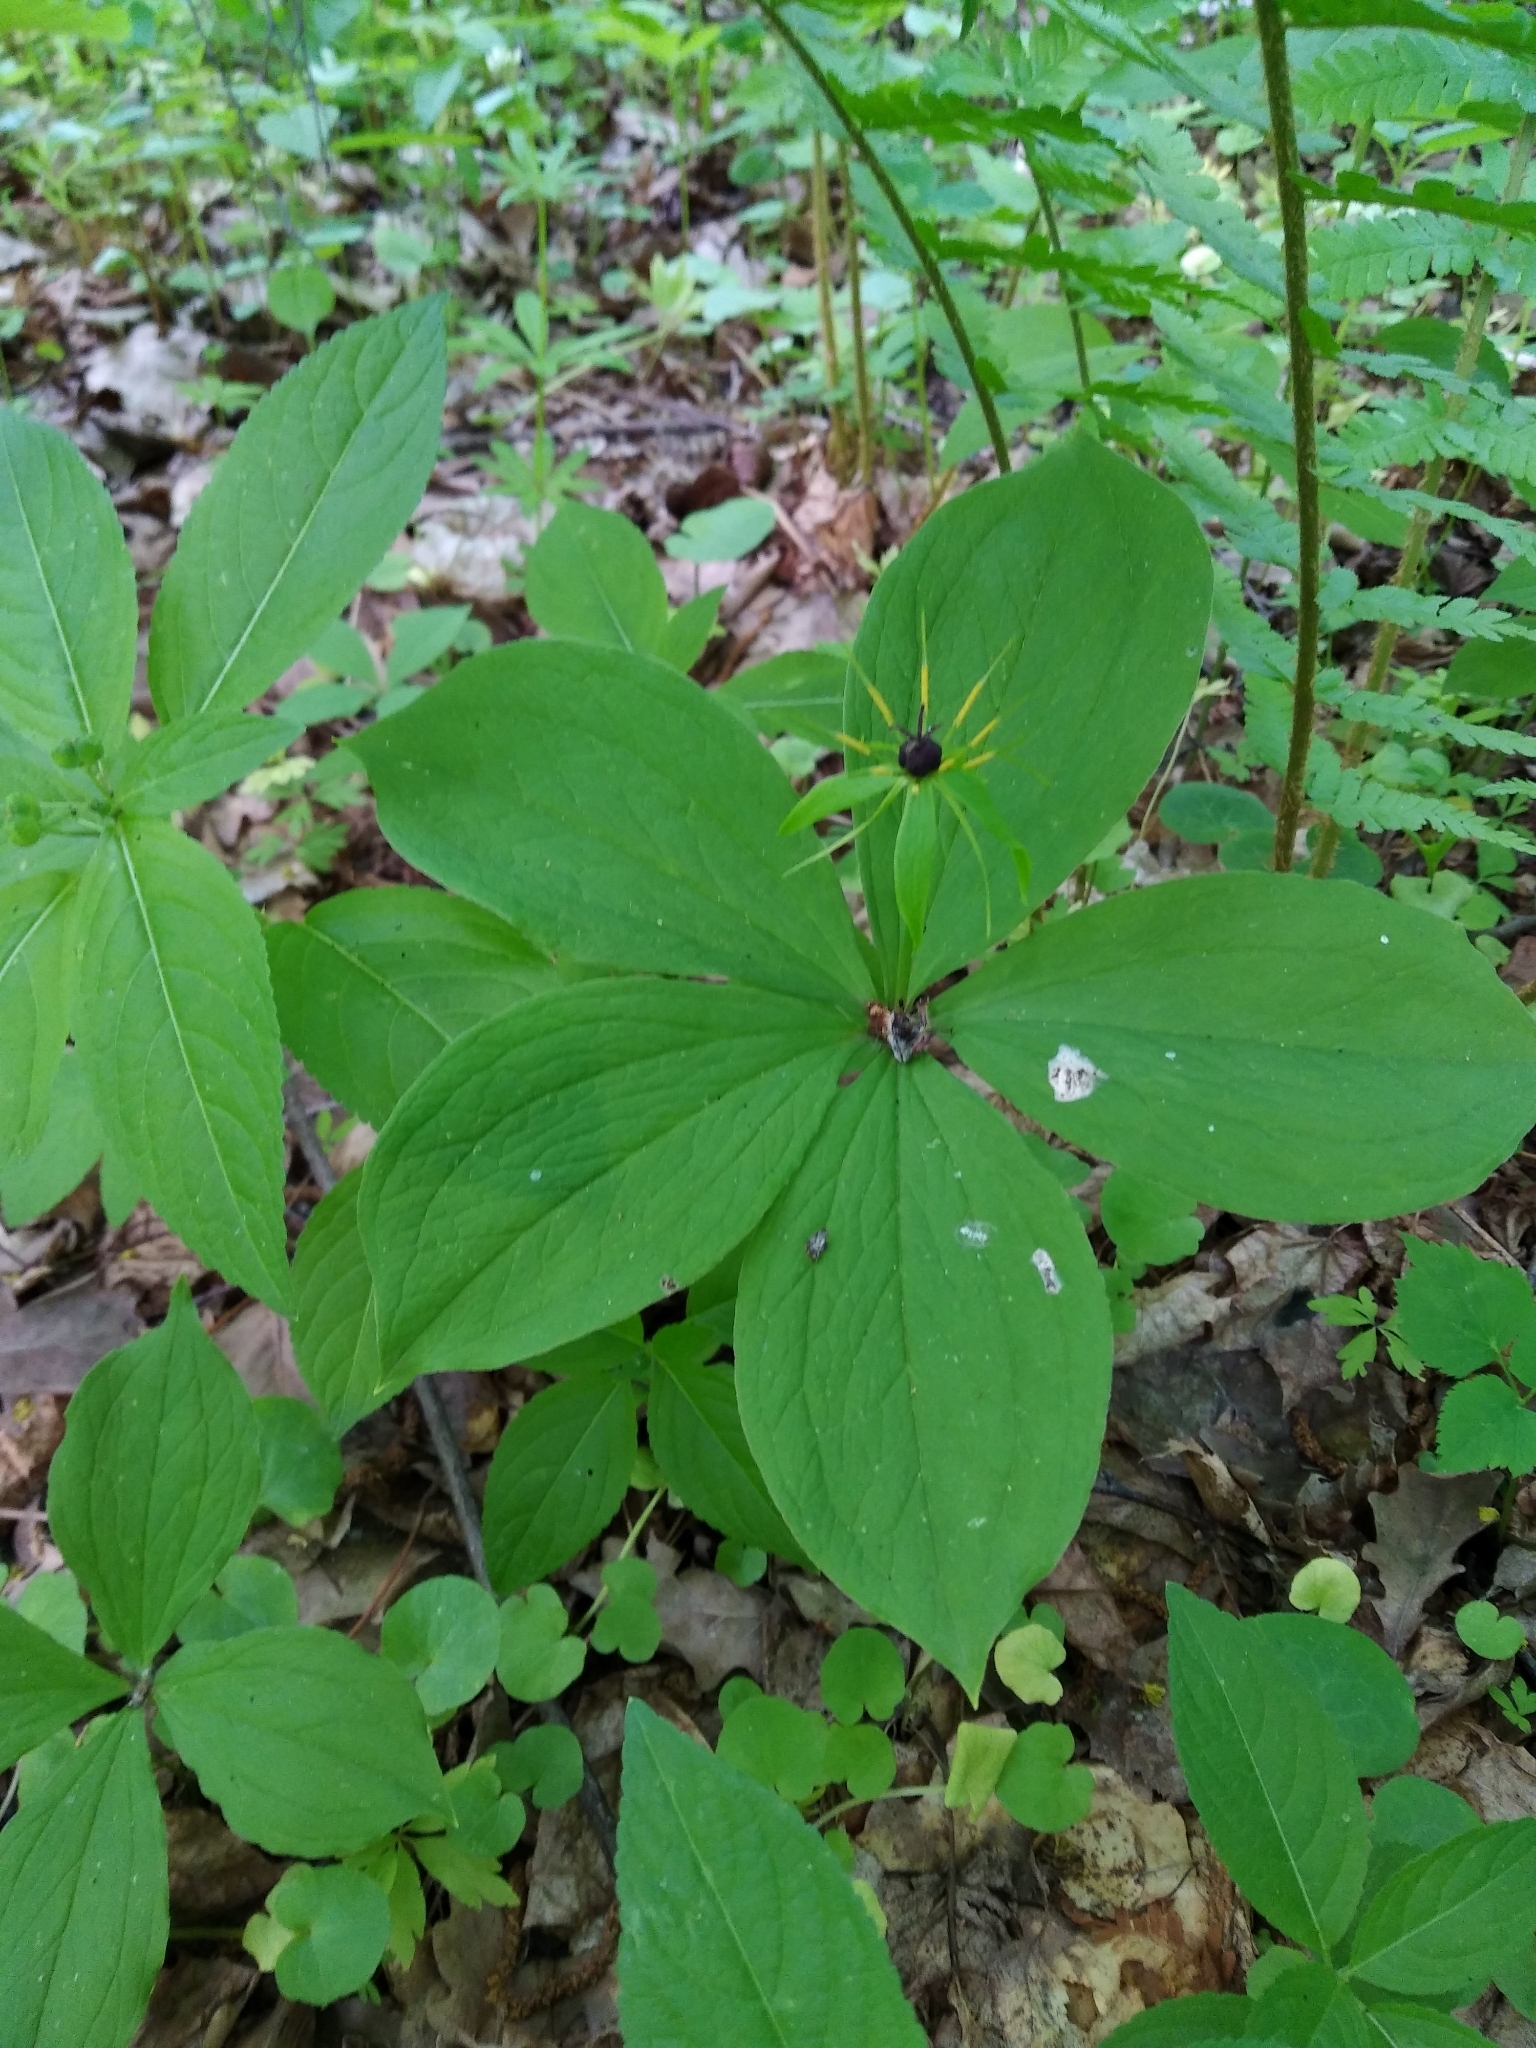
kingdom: Plantae
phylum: Tracheophyta
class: Liliopsida
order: Liliales
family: Melanthiaceae
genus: Paris
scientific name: Paris quadrifolia
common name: Herb-paris
